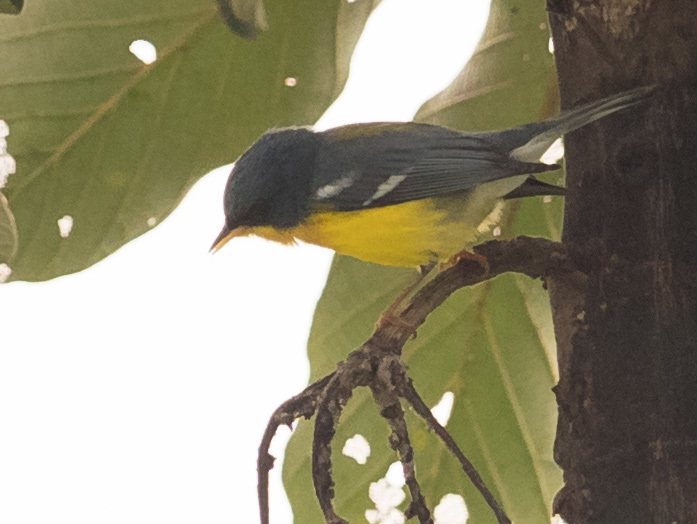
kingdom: Animalia
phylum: Chordata
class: Aves
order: Passeriformes
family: Parulidae
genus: Setophaga
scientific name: Setophaga pitiayumi
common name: Tropical parula
